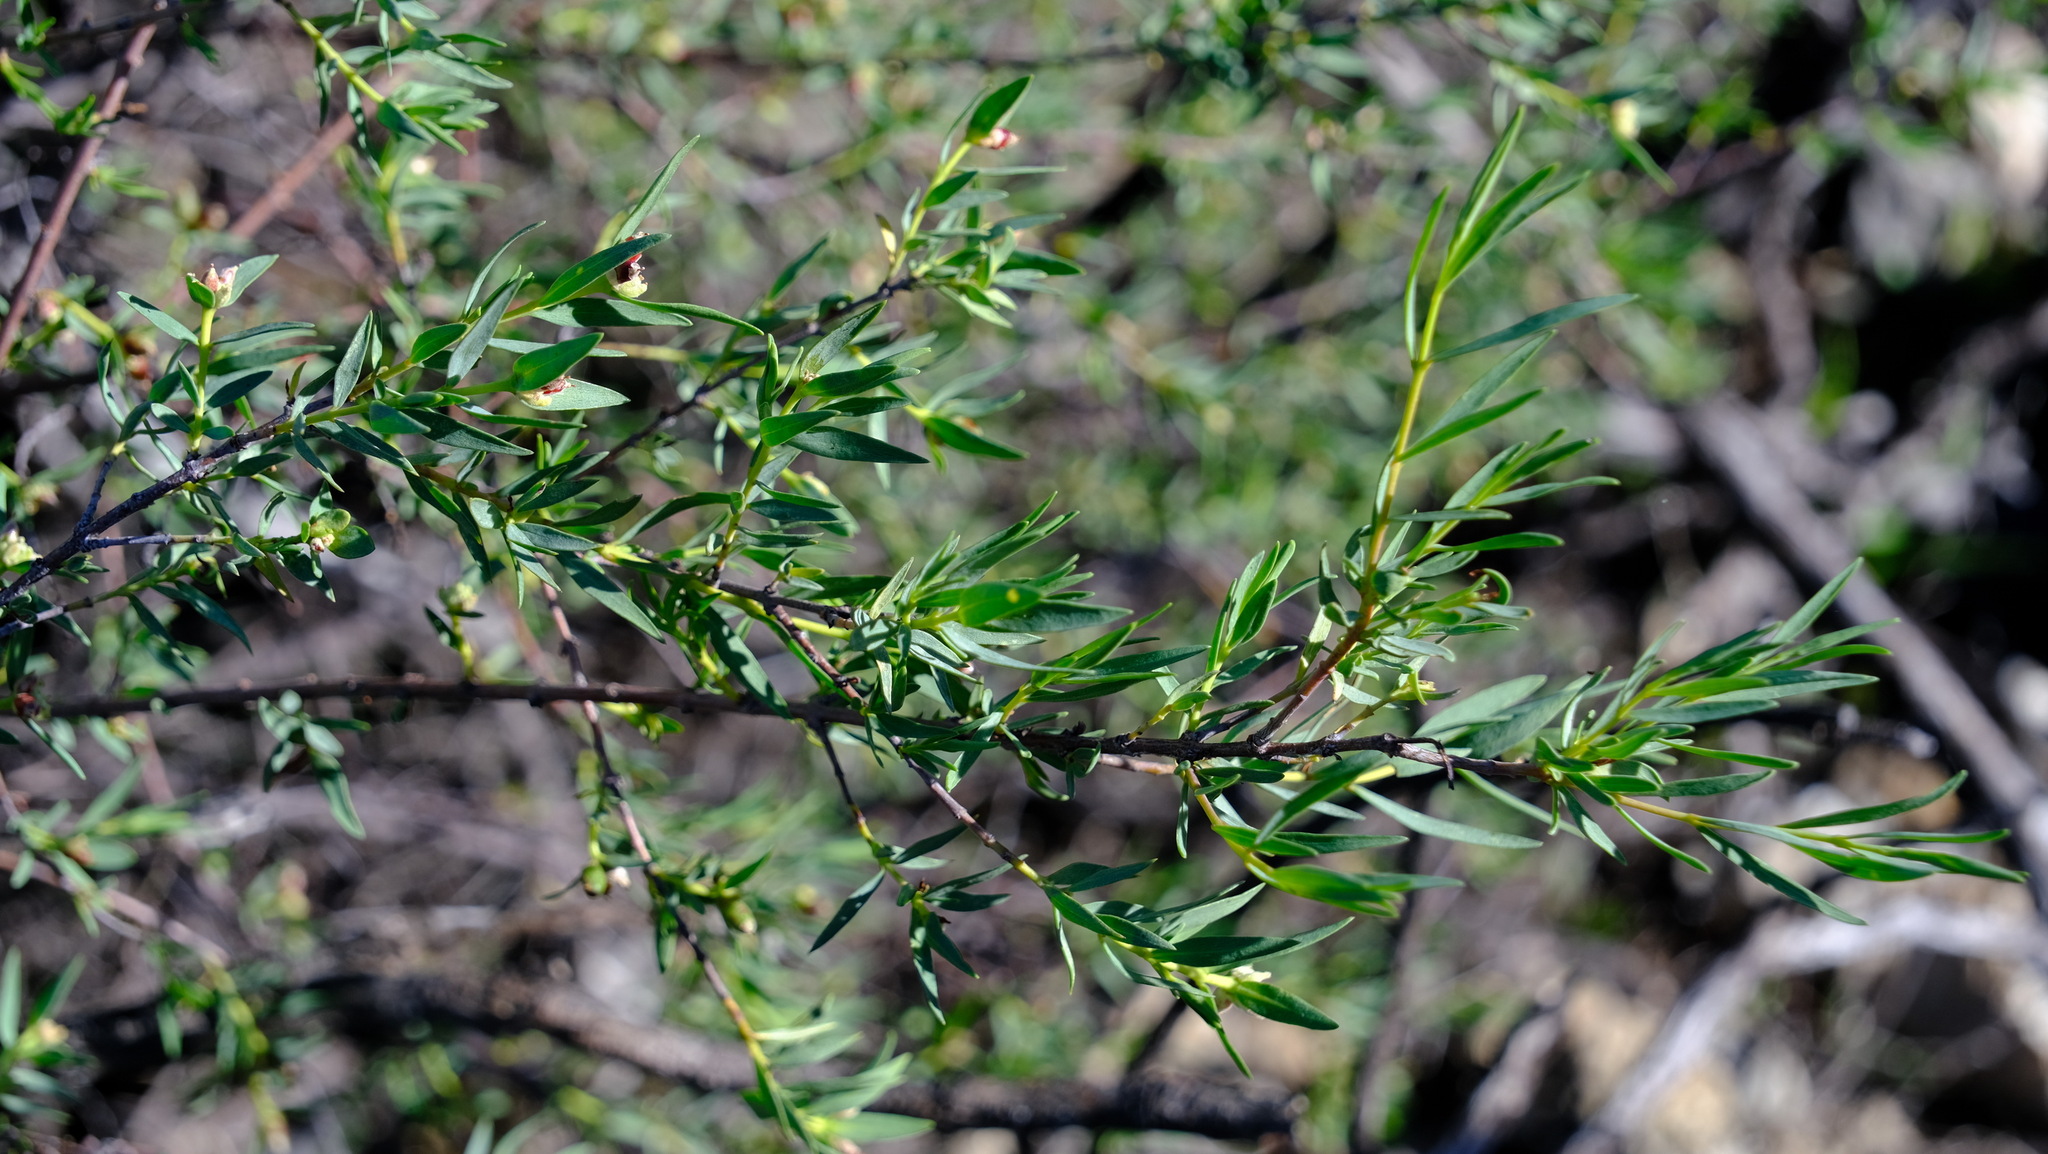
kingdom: Plantae
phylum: Tracheophyta
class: Magnoliopsida
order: Malvales
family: Thymelaeaceae
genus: Pimelea
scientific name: Pimelea microcephala
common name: Mallee riceflower
